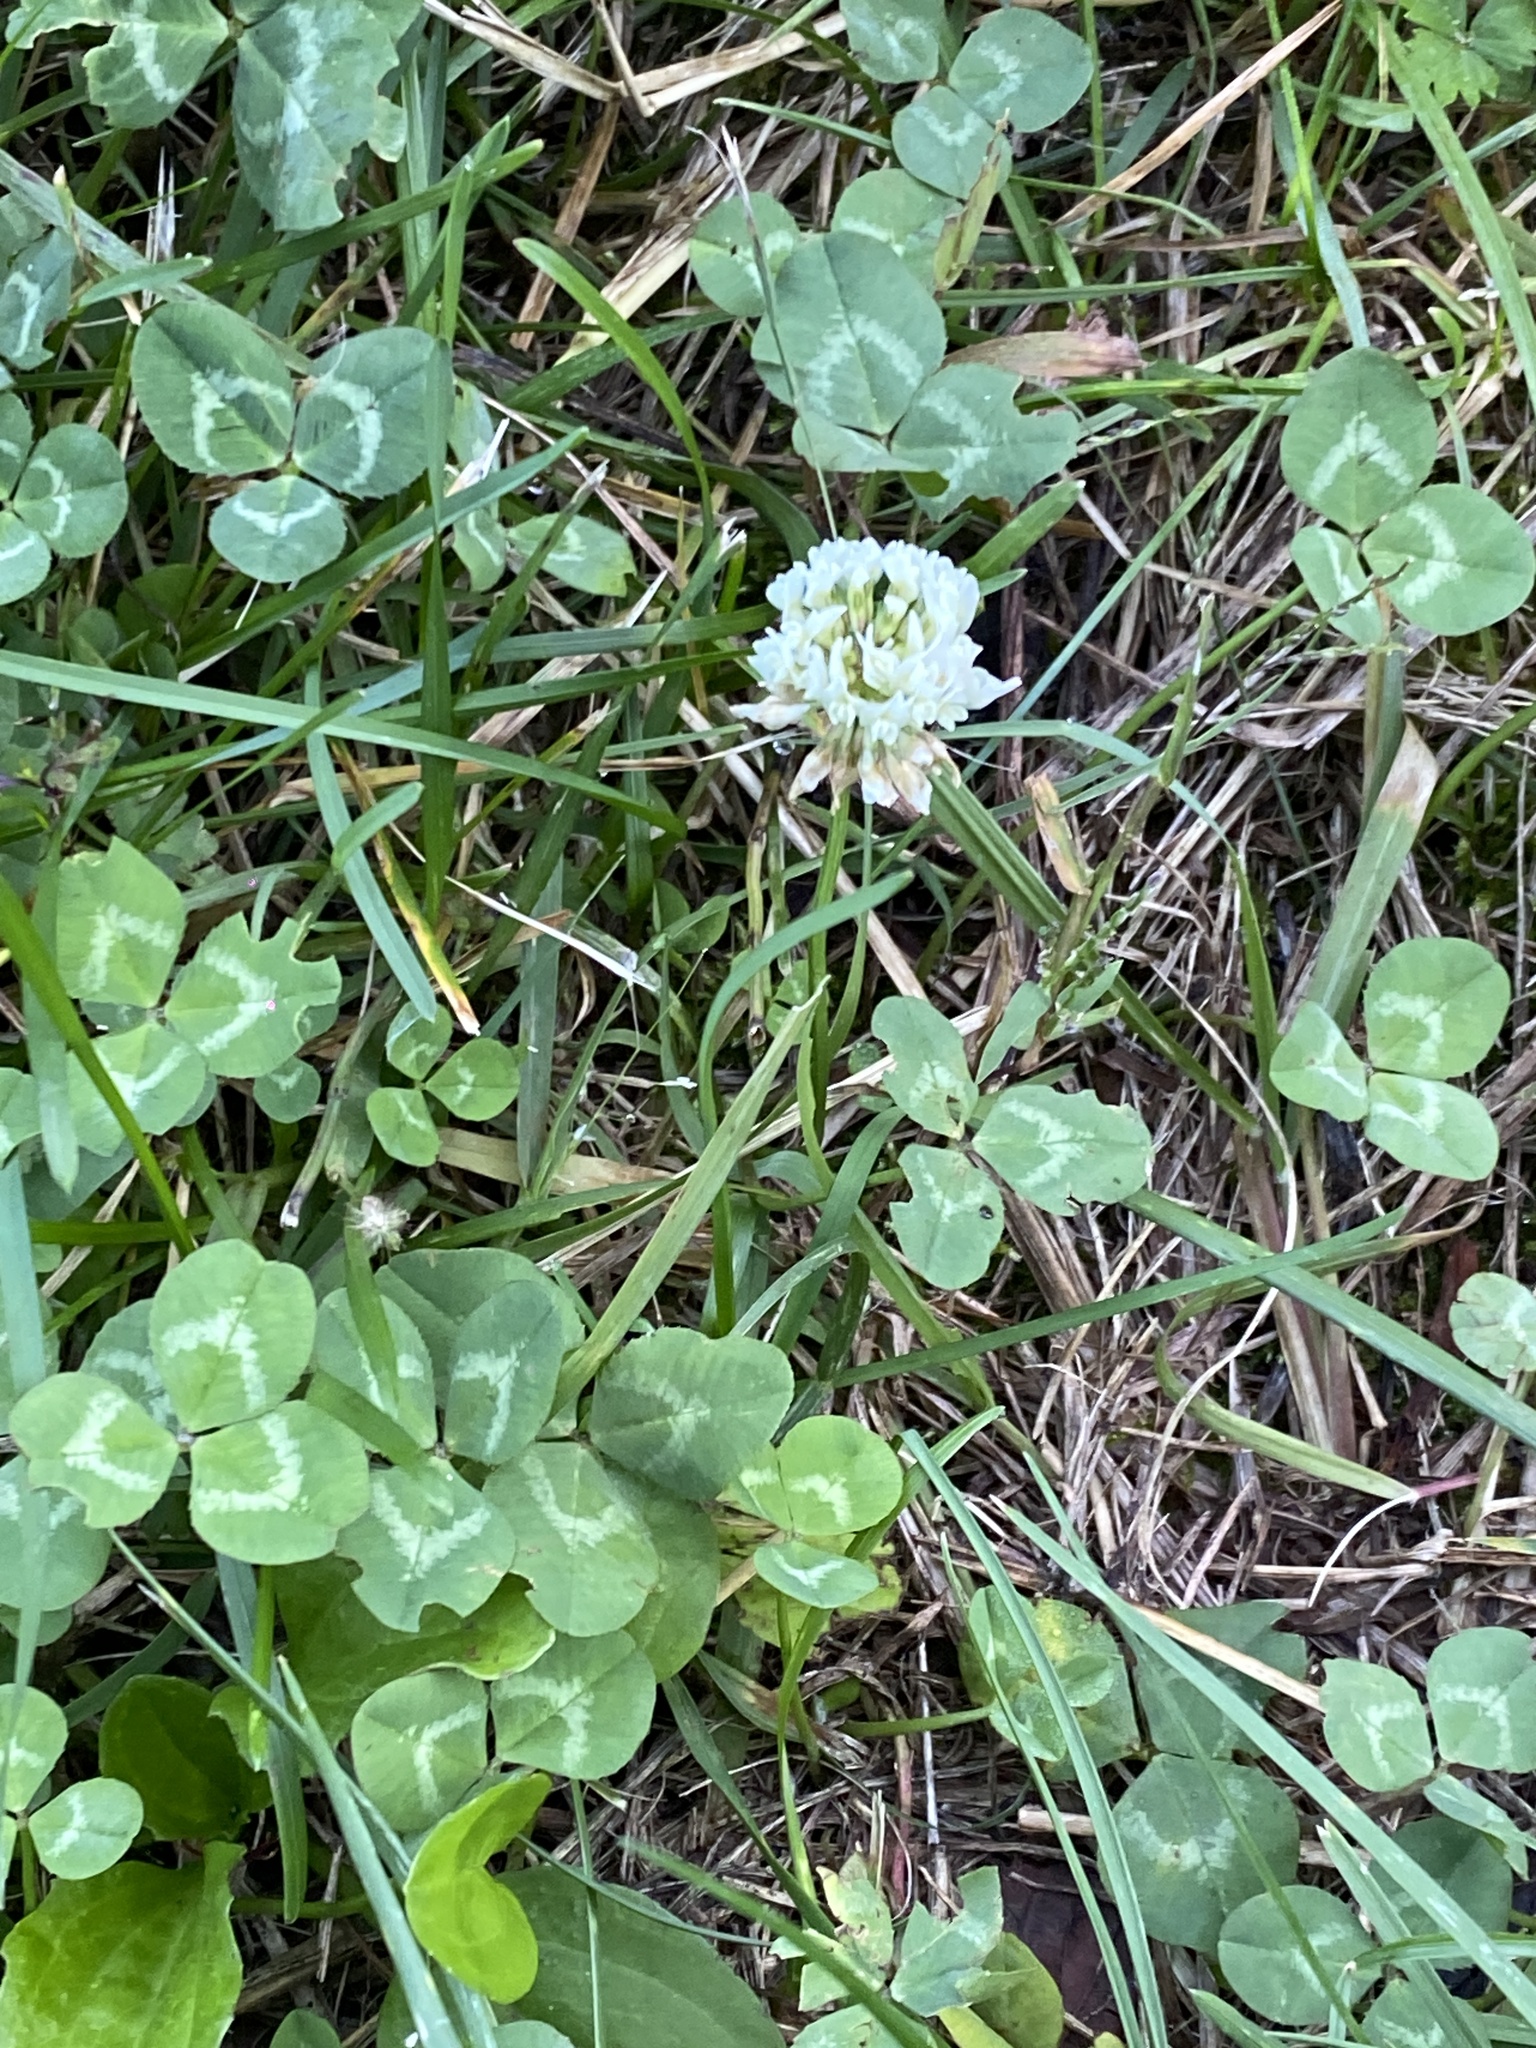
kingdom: Plantae
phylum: Tracheophyta
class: Magnoliopsida
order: Fabales
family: Fabaceae
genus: Trifolium
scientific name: Trifolium repens
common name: White clover
